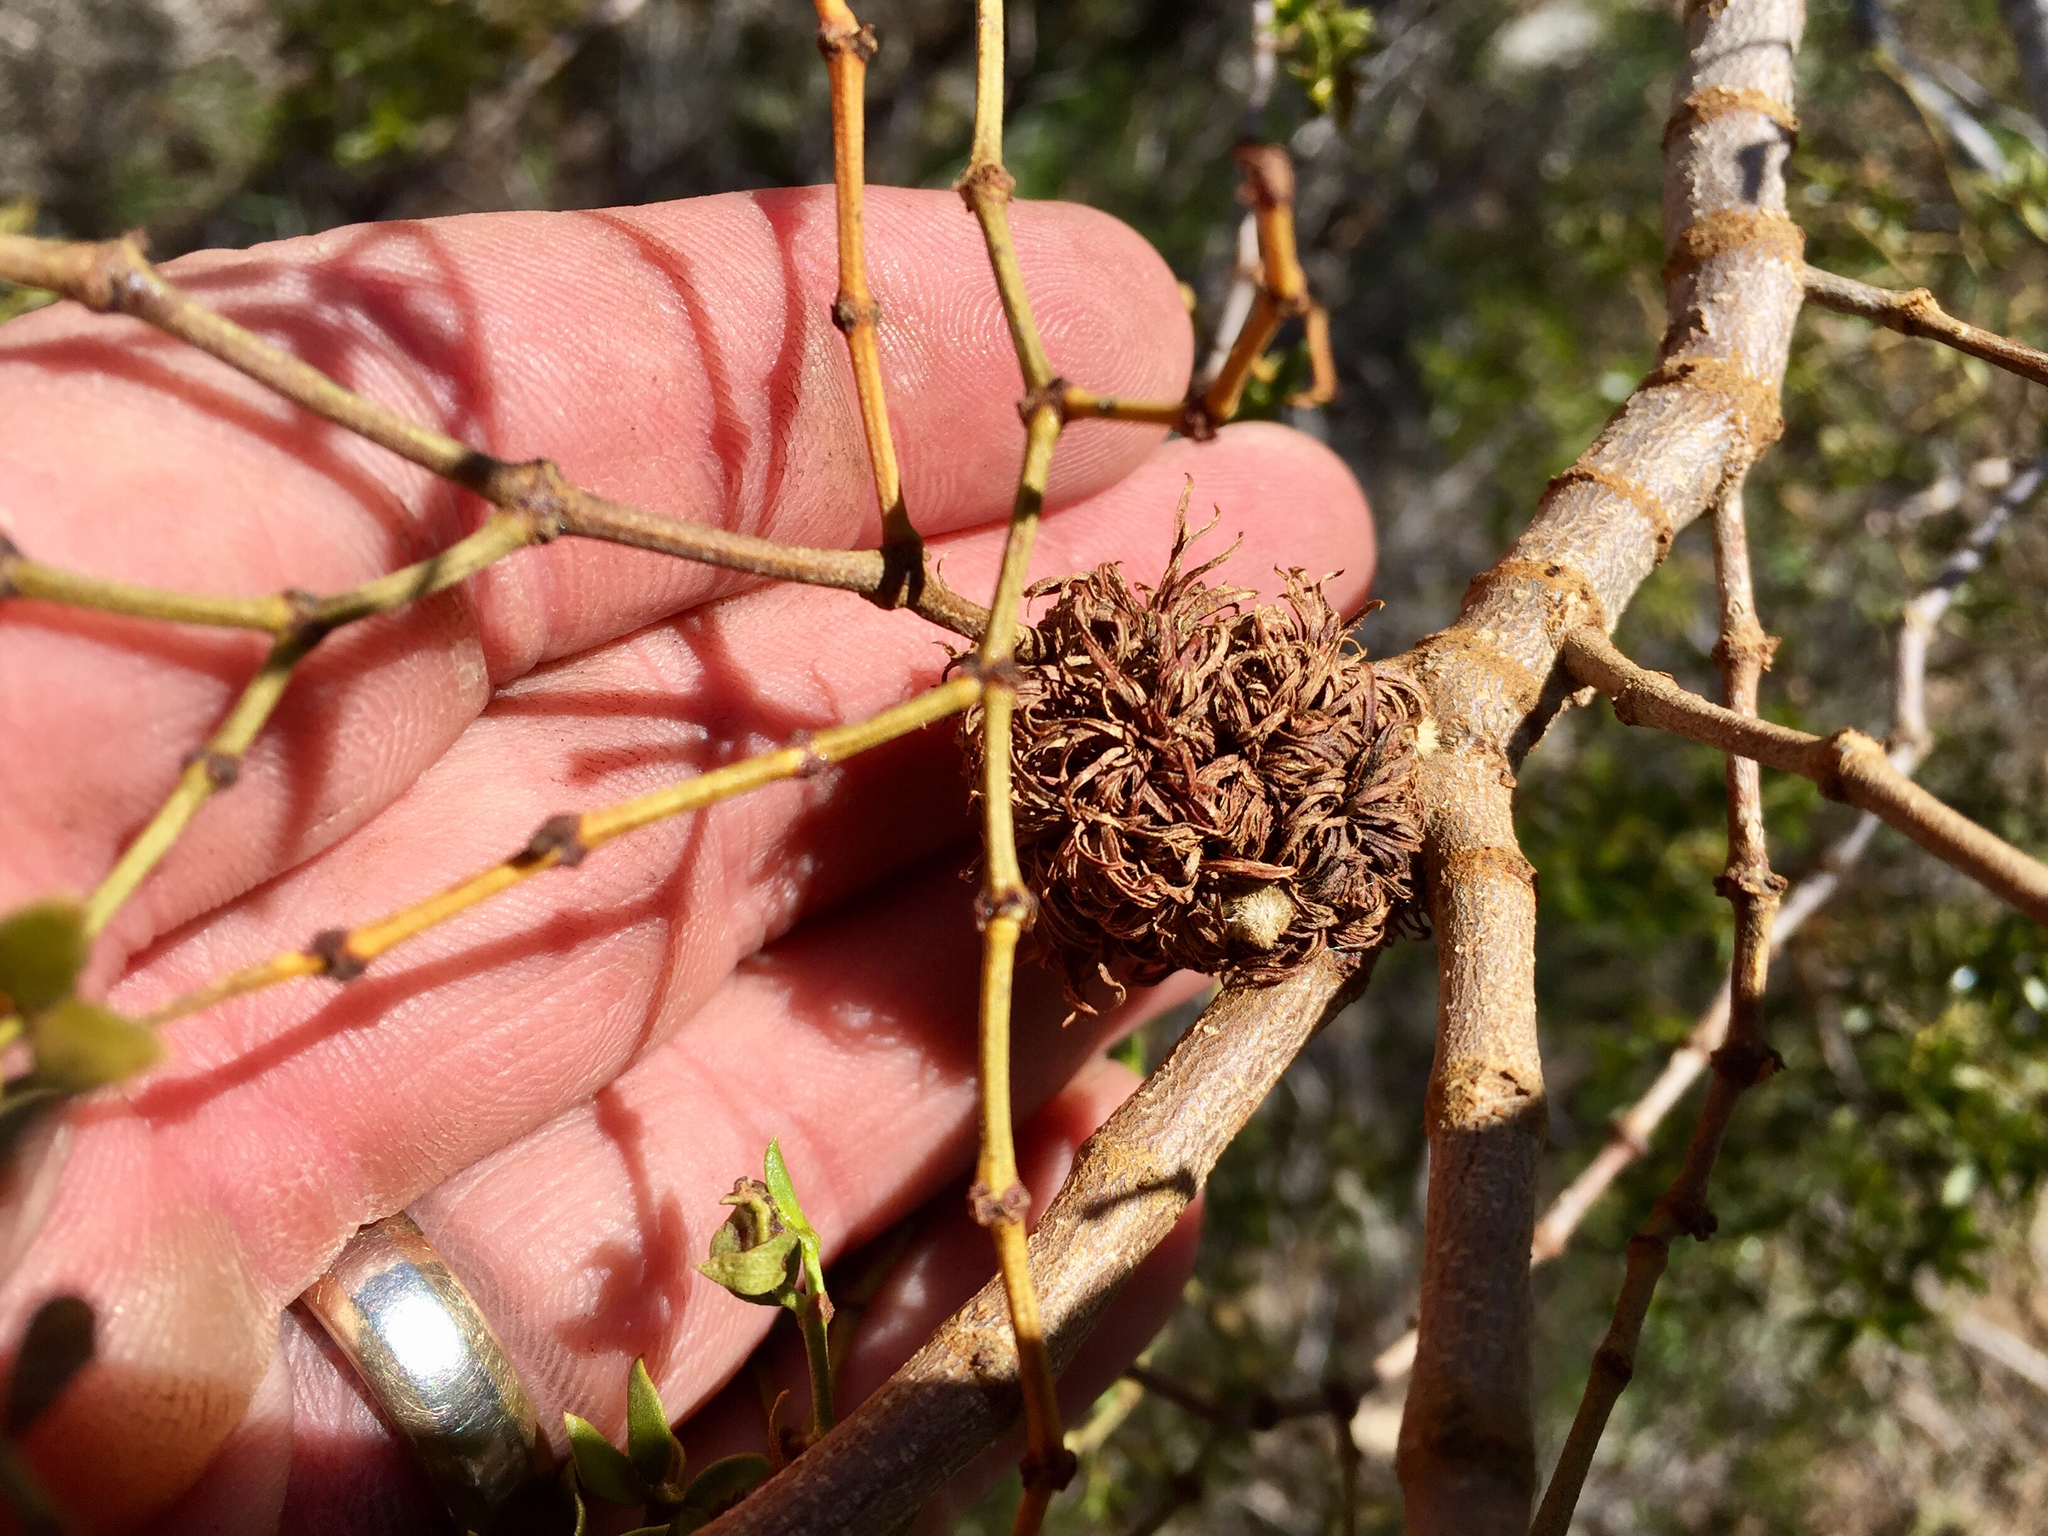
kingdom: Animalia
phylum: Arthropoda
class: Insecta
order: Diptera
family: Cecidomyiidae
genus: Asphondylia
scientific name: Asphondylia auripila
